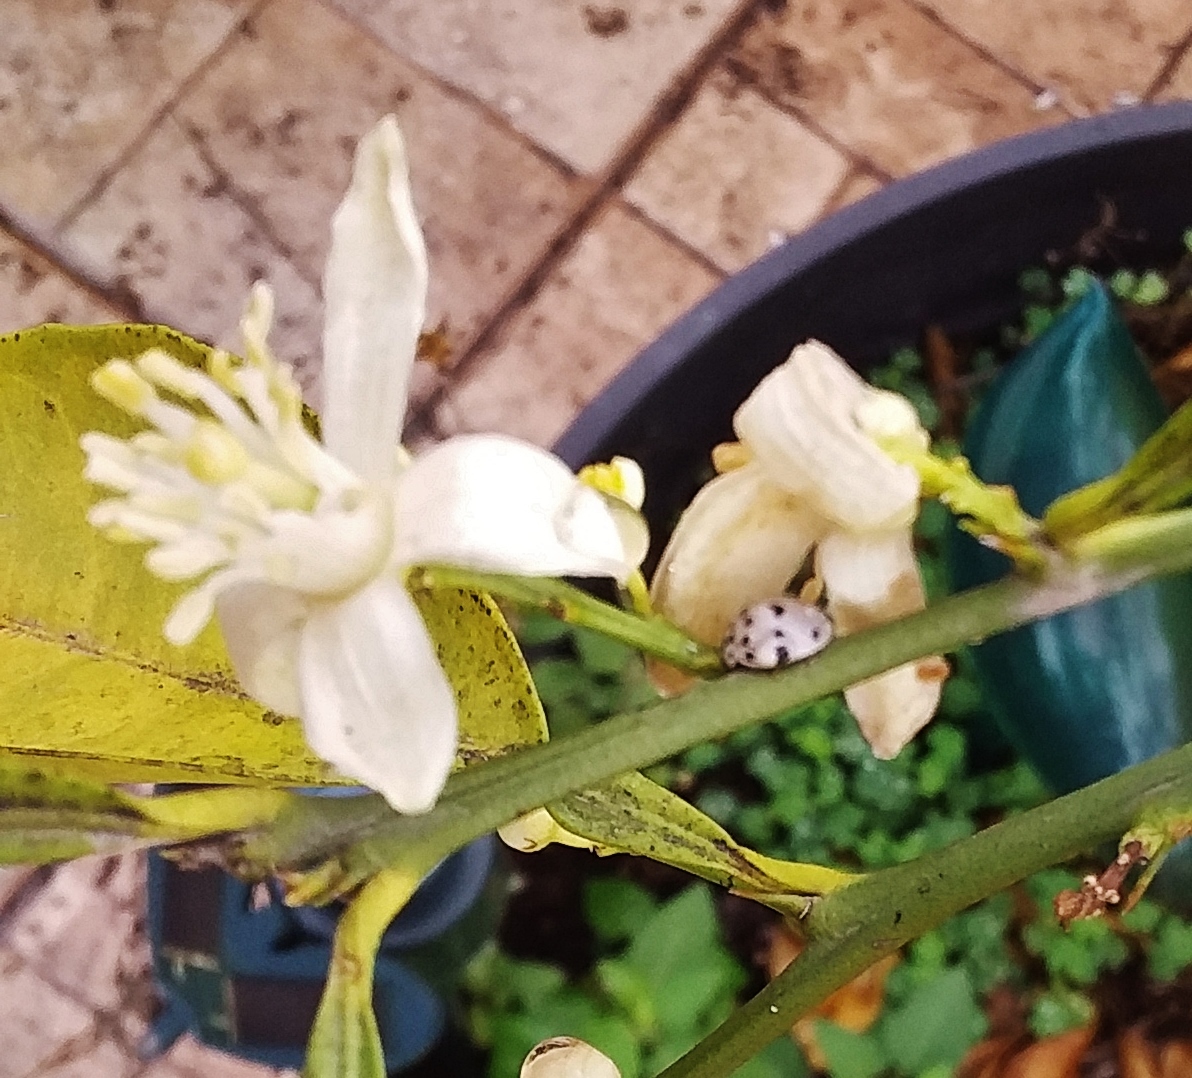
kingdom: Animalia
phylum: Arthropoda
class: Insecta
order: Coleoptera
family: Coccinellidae
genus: Olla
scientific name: Olla v-nigrum
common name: Ashy gray lady beetle
